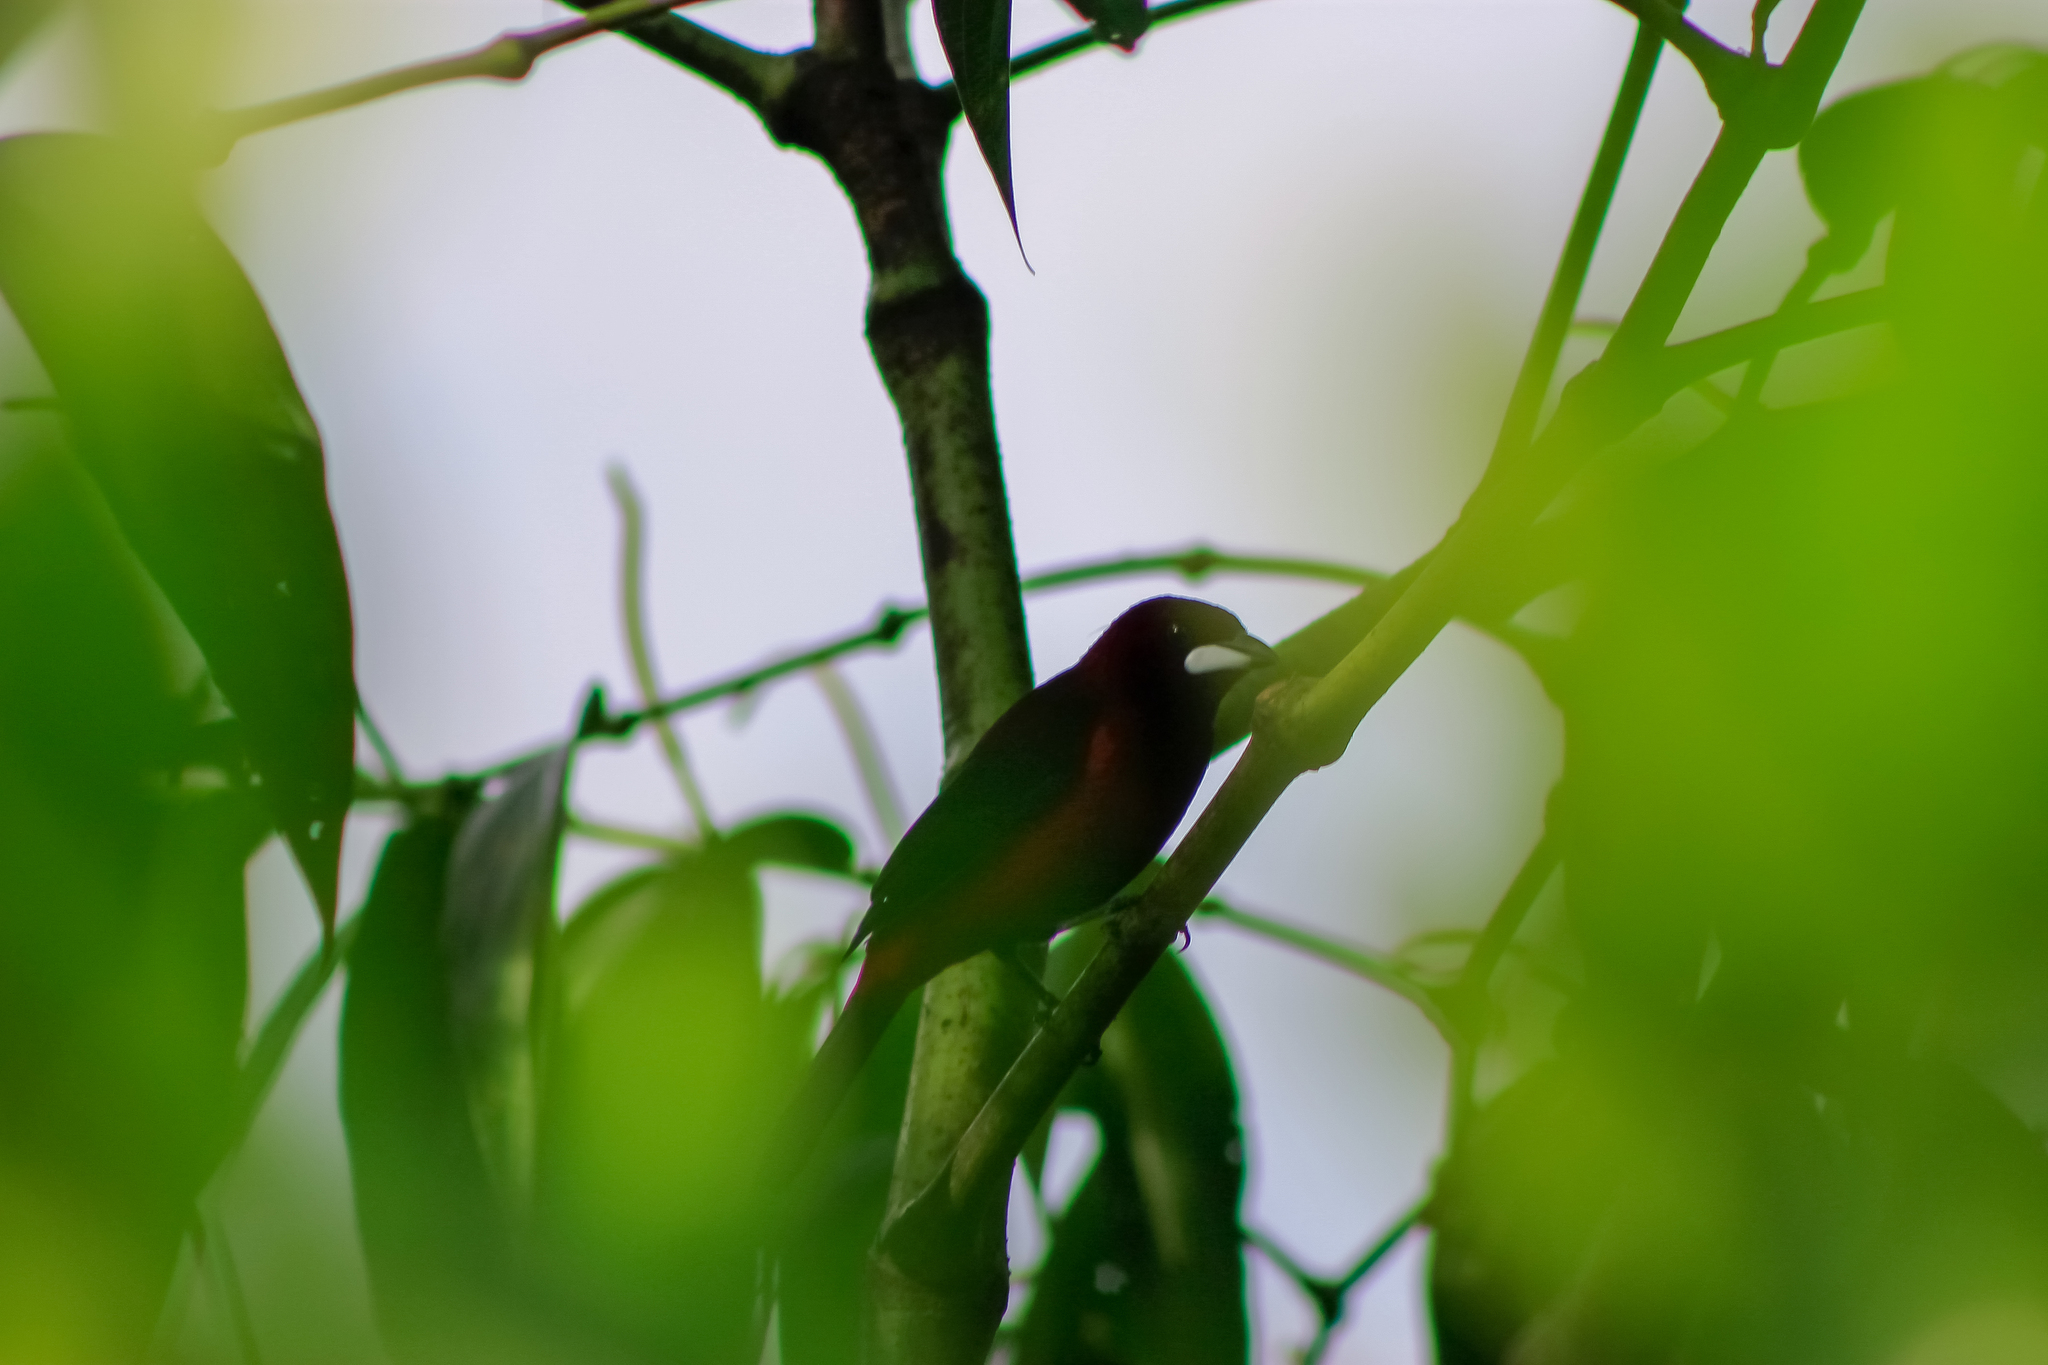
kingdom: Animalia
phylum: Chordata
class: Aves
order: Passeriformes
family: Thraupidae
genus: Ramphocelus
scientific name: Ramphocelus dimidiatus
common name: Crimson-backed tanager
